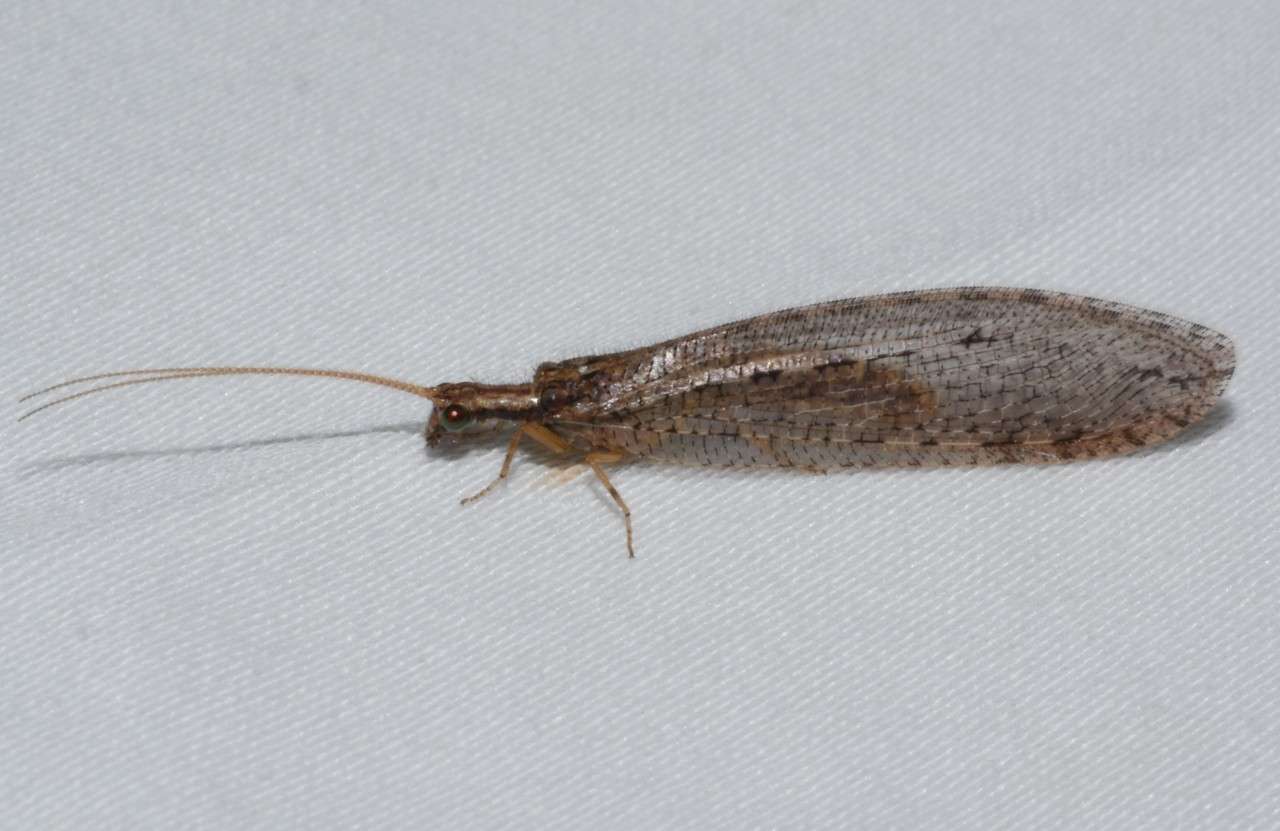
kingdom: Animalia
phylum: Arthropoda
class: Insecta
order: Neuroptera
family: Osmylidae
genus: Stenosmylus
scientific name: Stenosmylus tenuis
